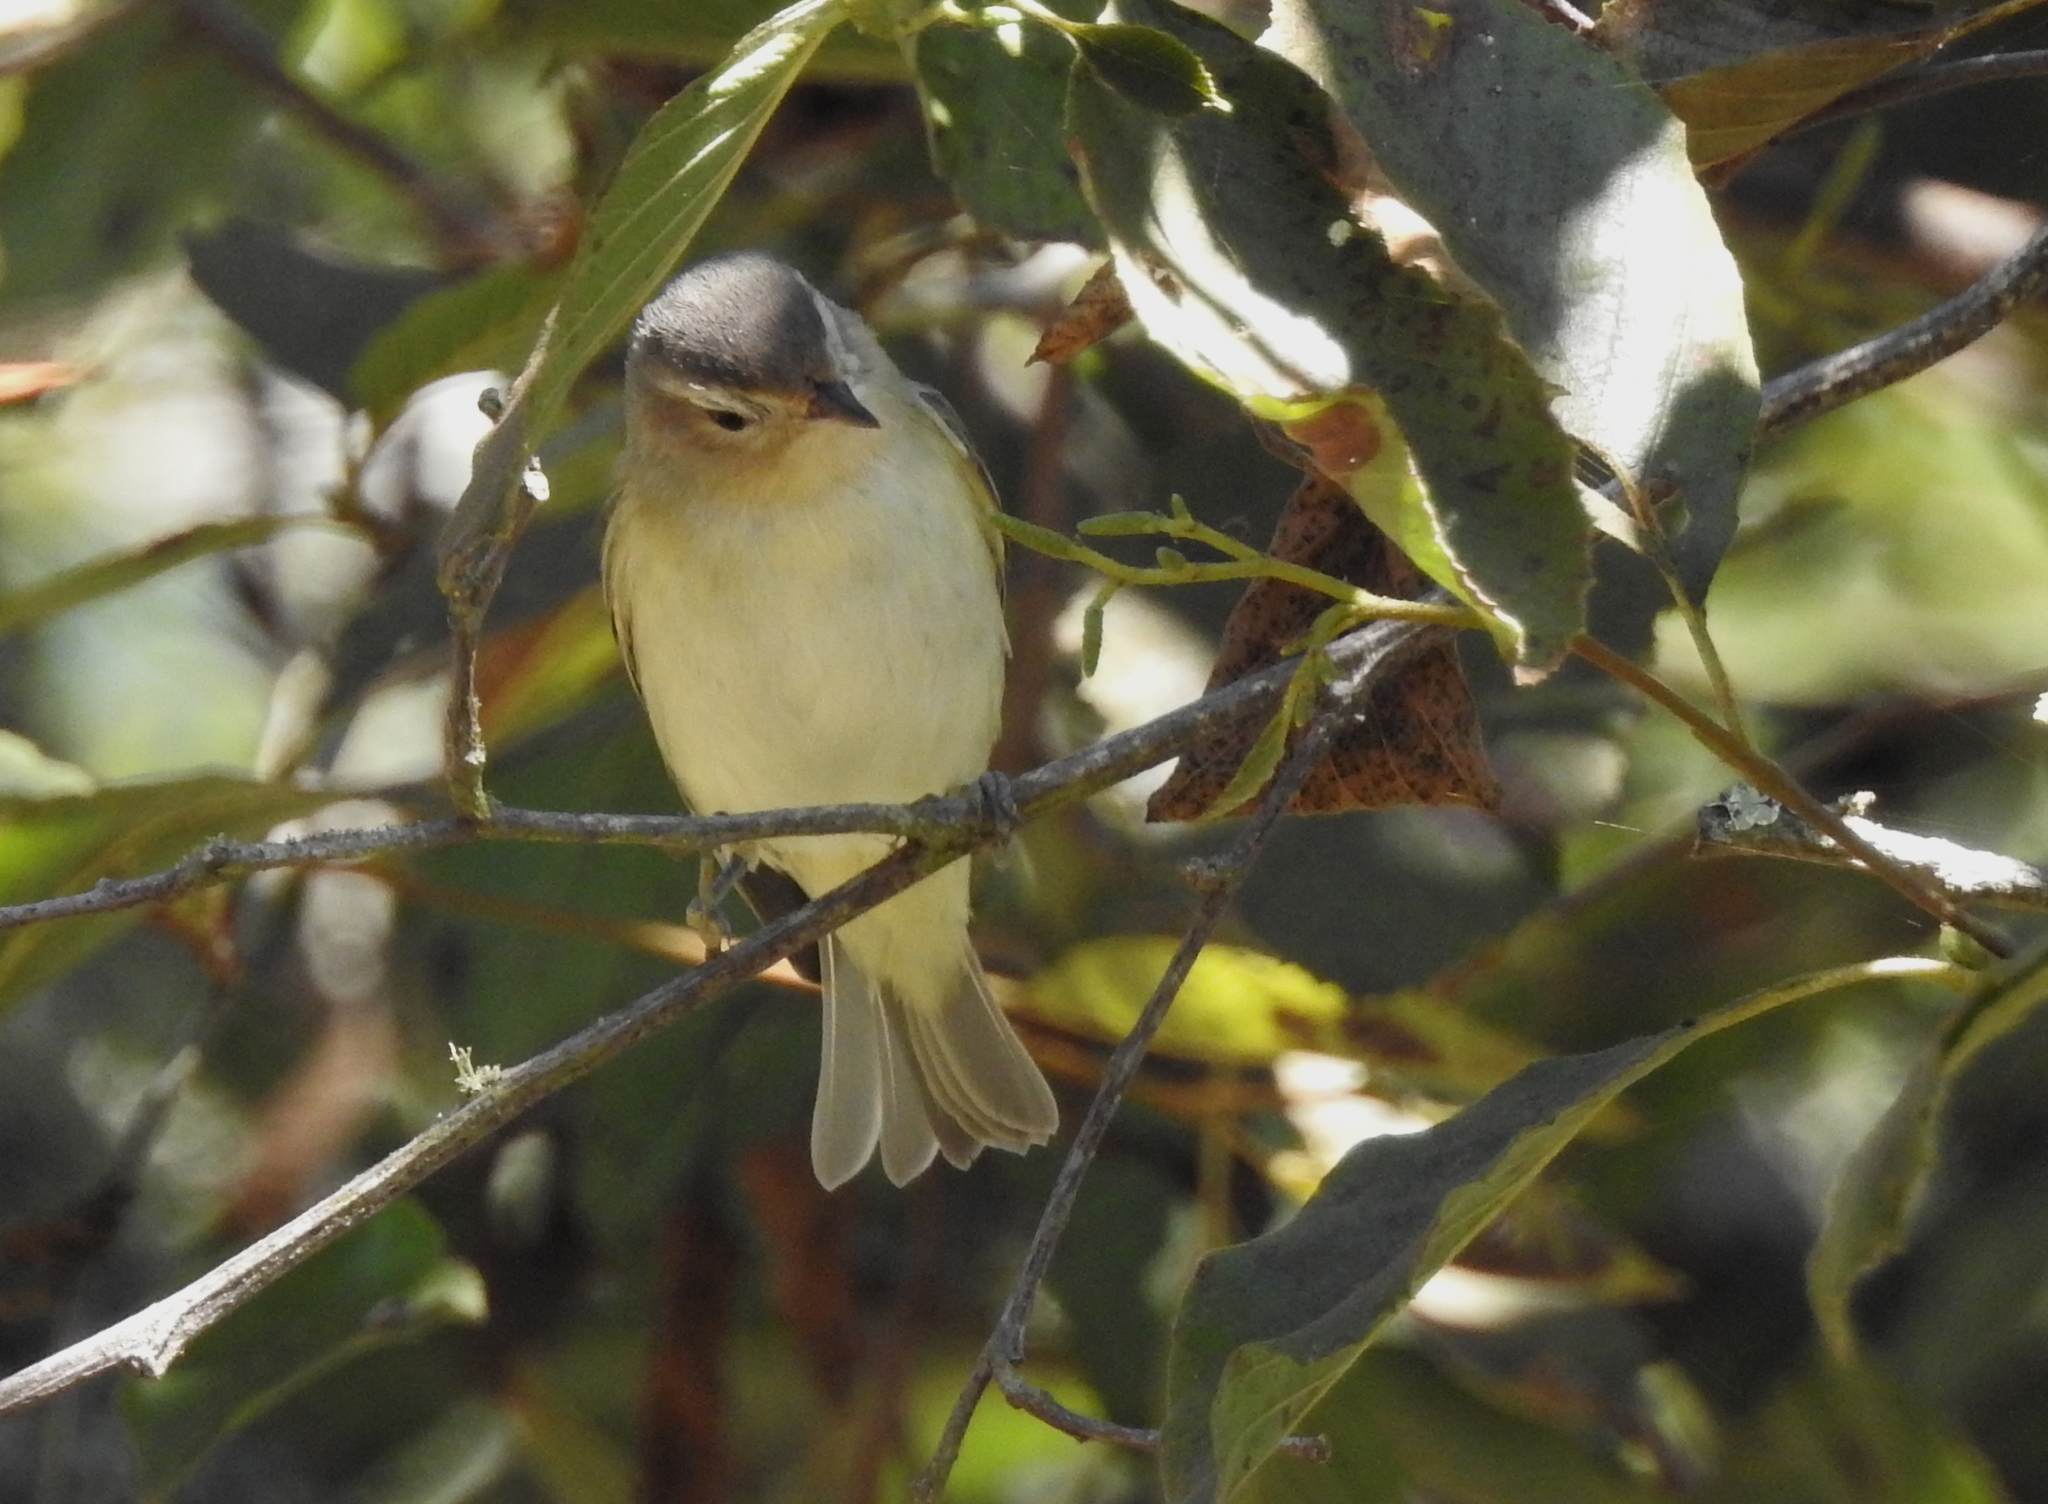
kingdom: Animalia
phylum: Chordata
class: Aves
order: Passeriformes
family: Vireonidae
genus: Vireo
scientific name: Vireo gilvus
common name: Warbling vireo
